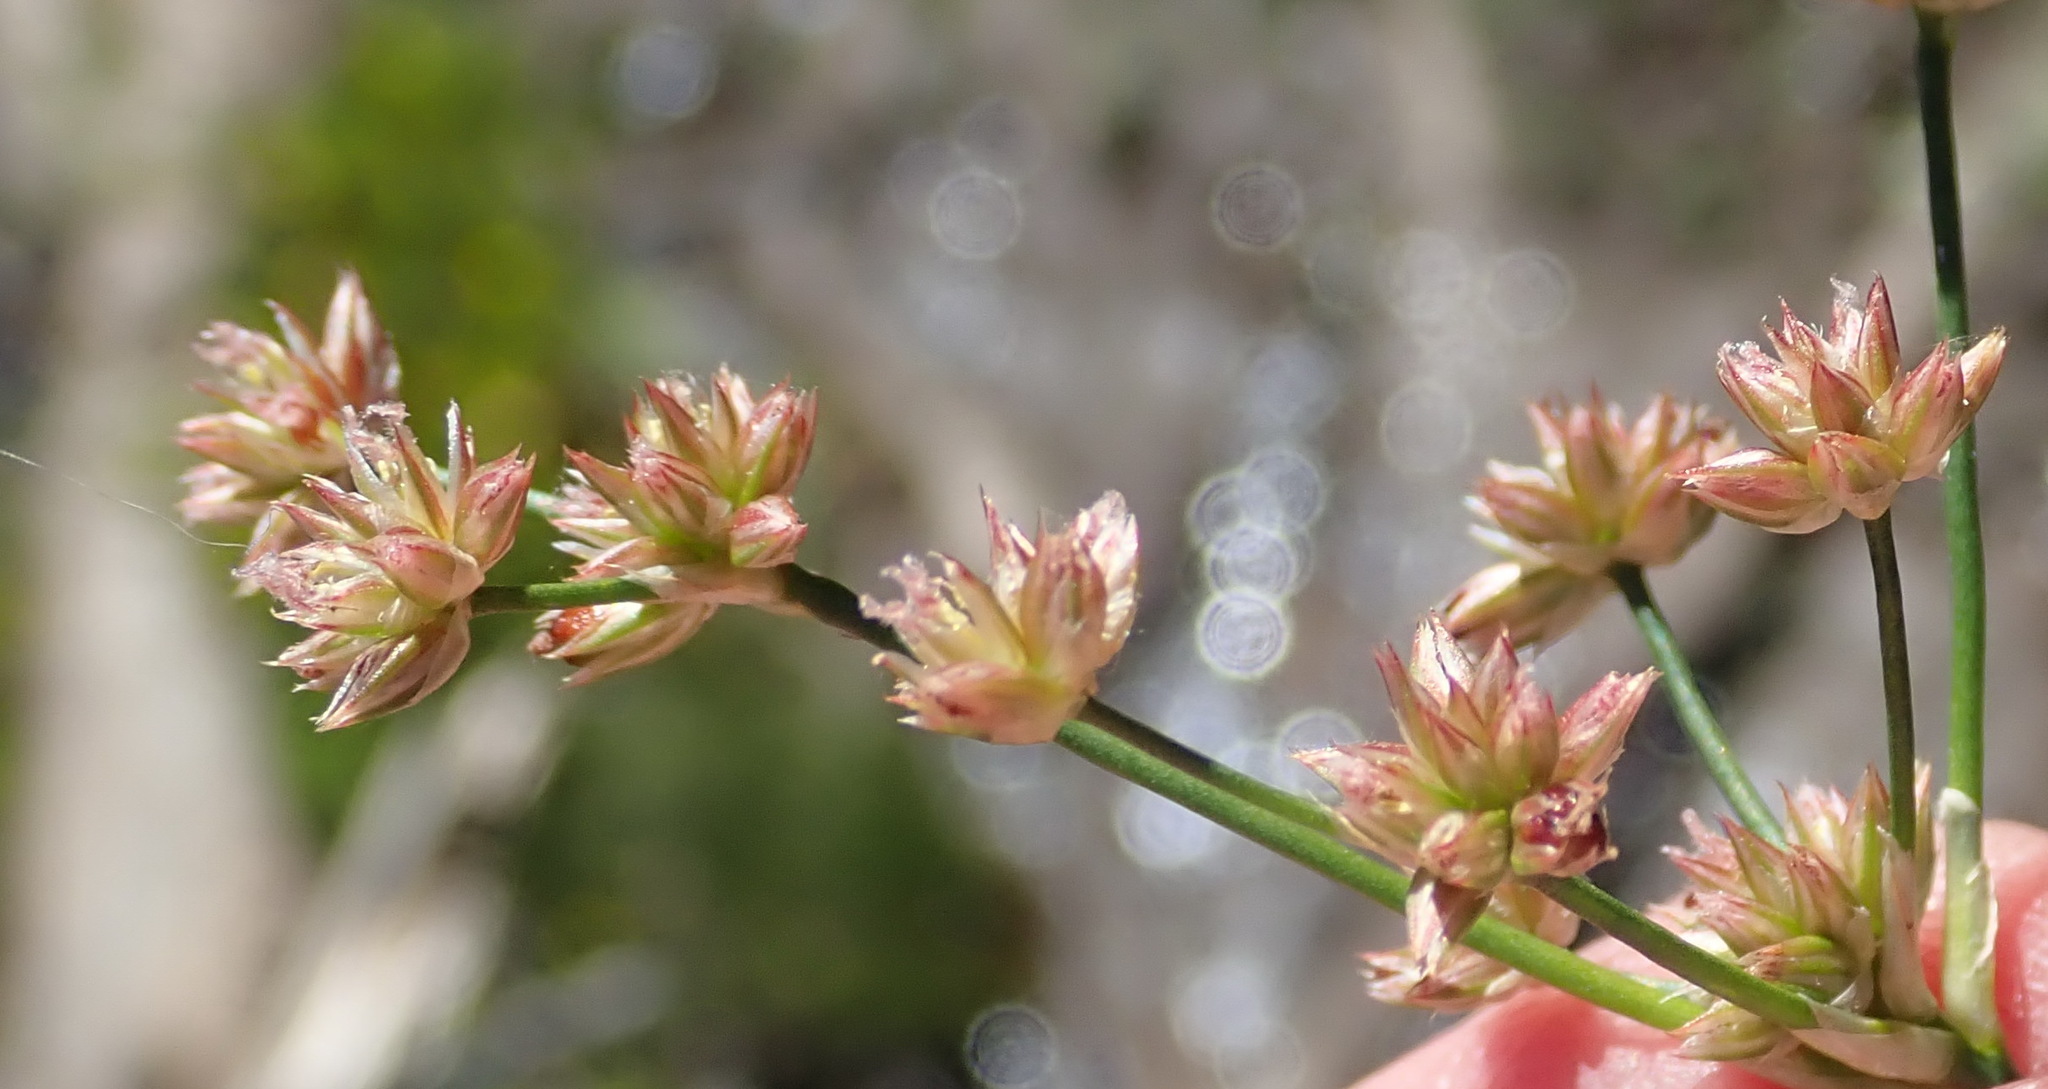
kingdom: Plantae
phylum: Tracheophyta
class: Liliopsida
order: Poales
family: Juncaceae
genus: Juncus
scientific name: Juncus oxycarpus
